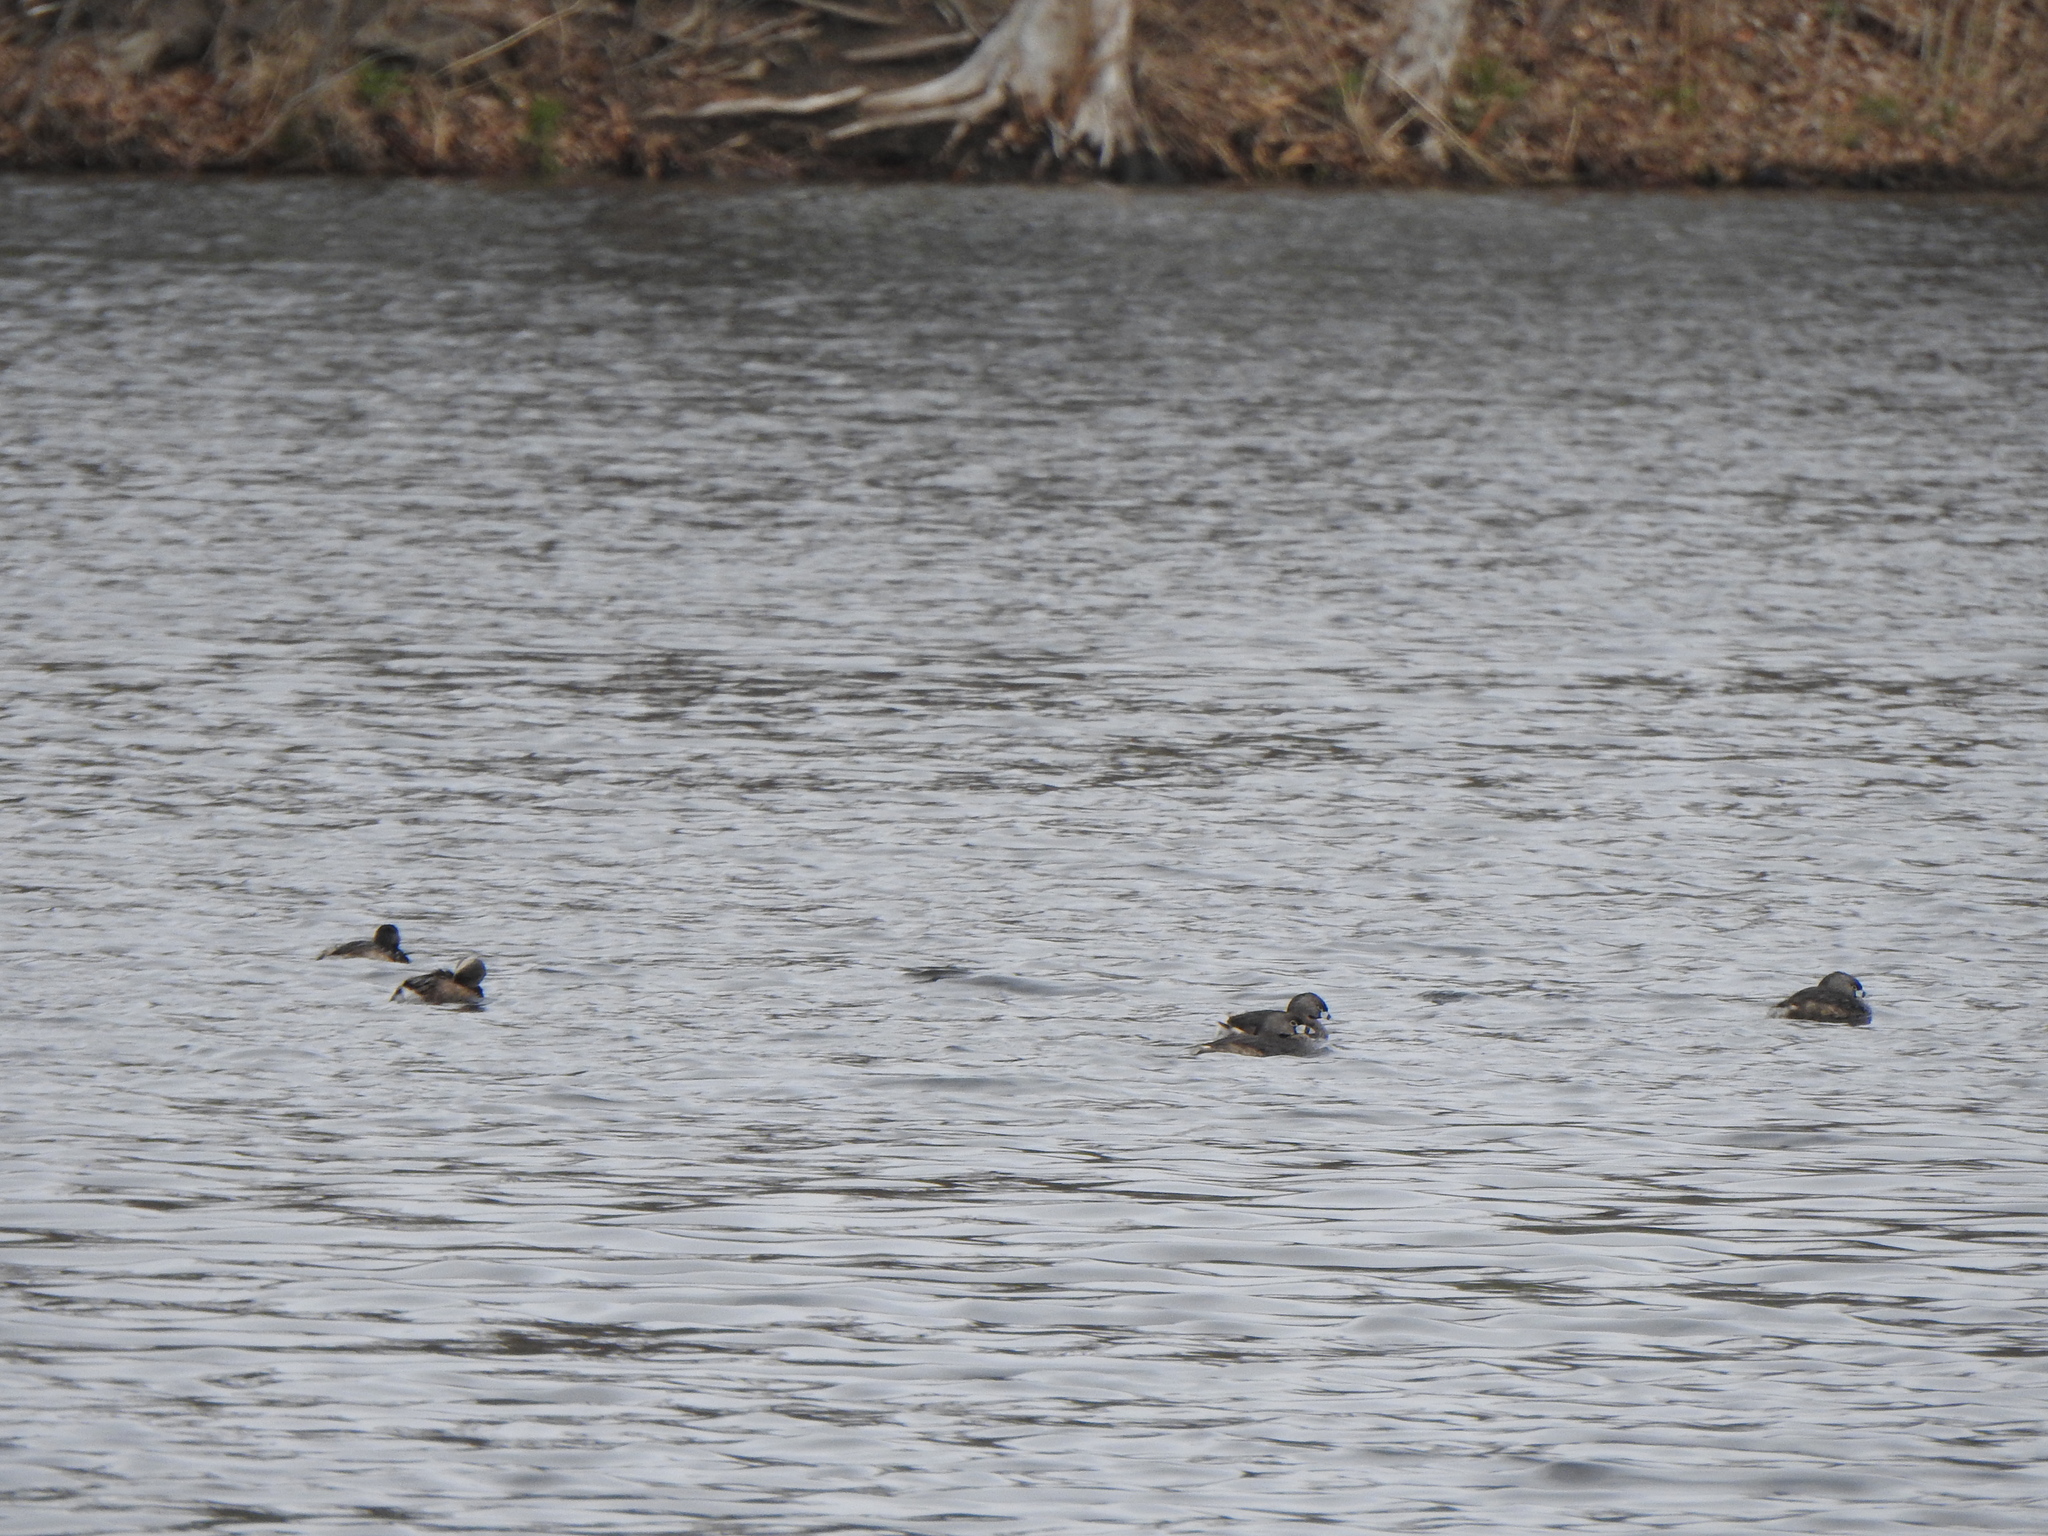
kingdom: Animalia
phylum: Chordata
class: Aves
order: Podicipediformes
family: Podicipedidae
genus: Podilymbus
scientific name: Podilymbus podiceps
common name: Pied-billed grebe
